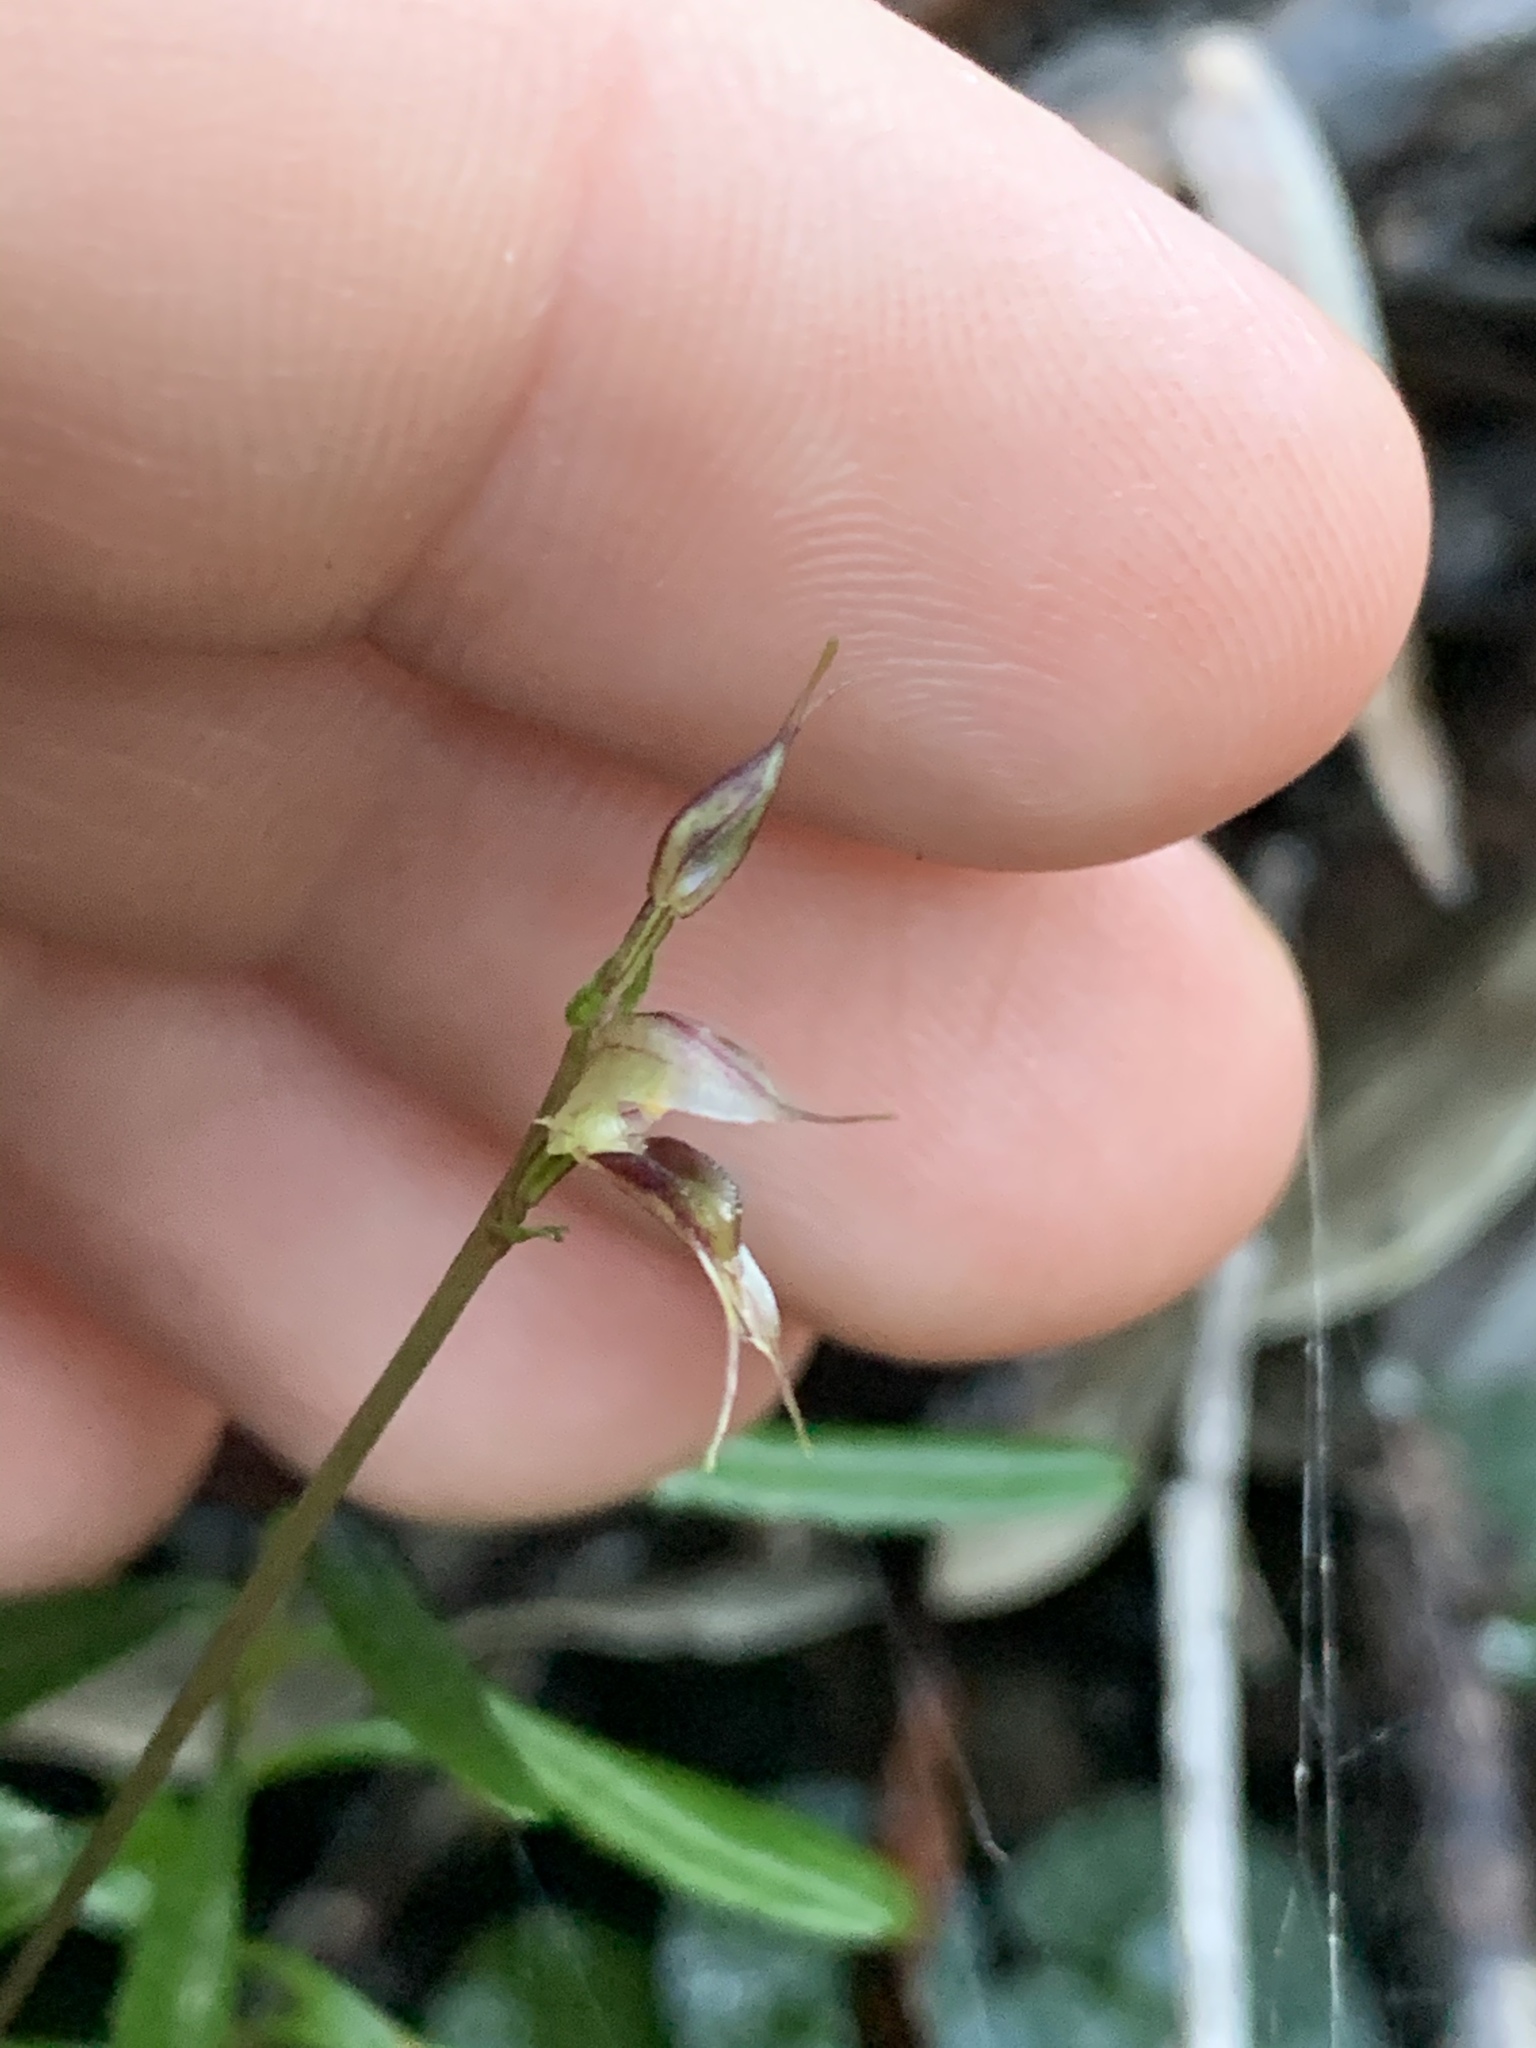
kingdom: Plantae
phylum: Tracheophyta
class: Liliopsida
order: Asparagales
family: Orchidaceae
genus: Acianthus
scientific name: Acianthus fornicatus
